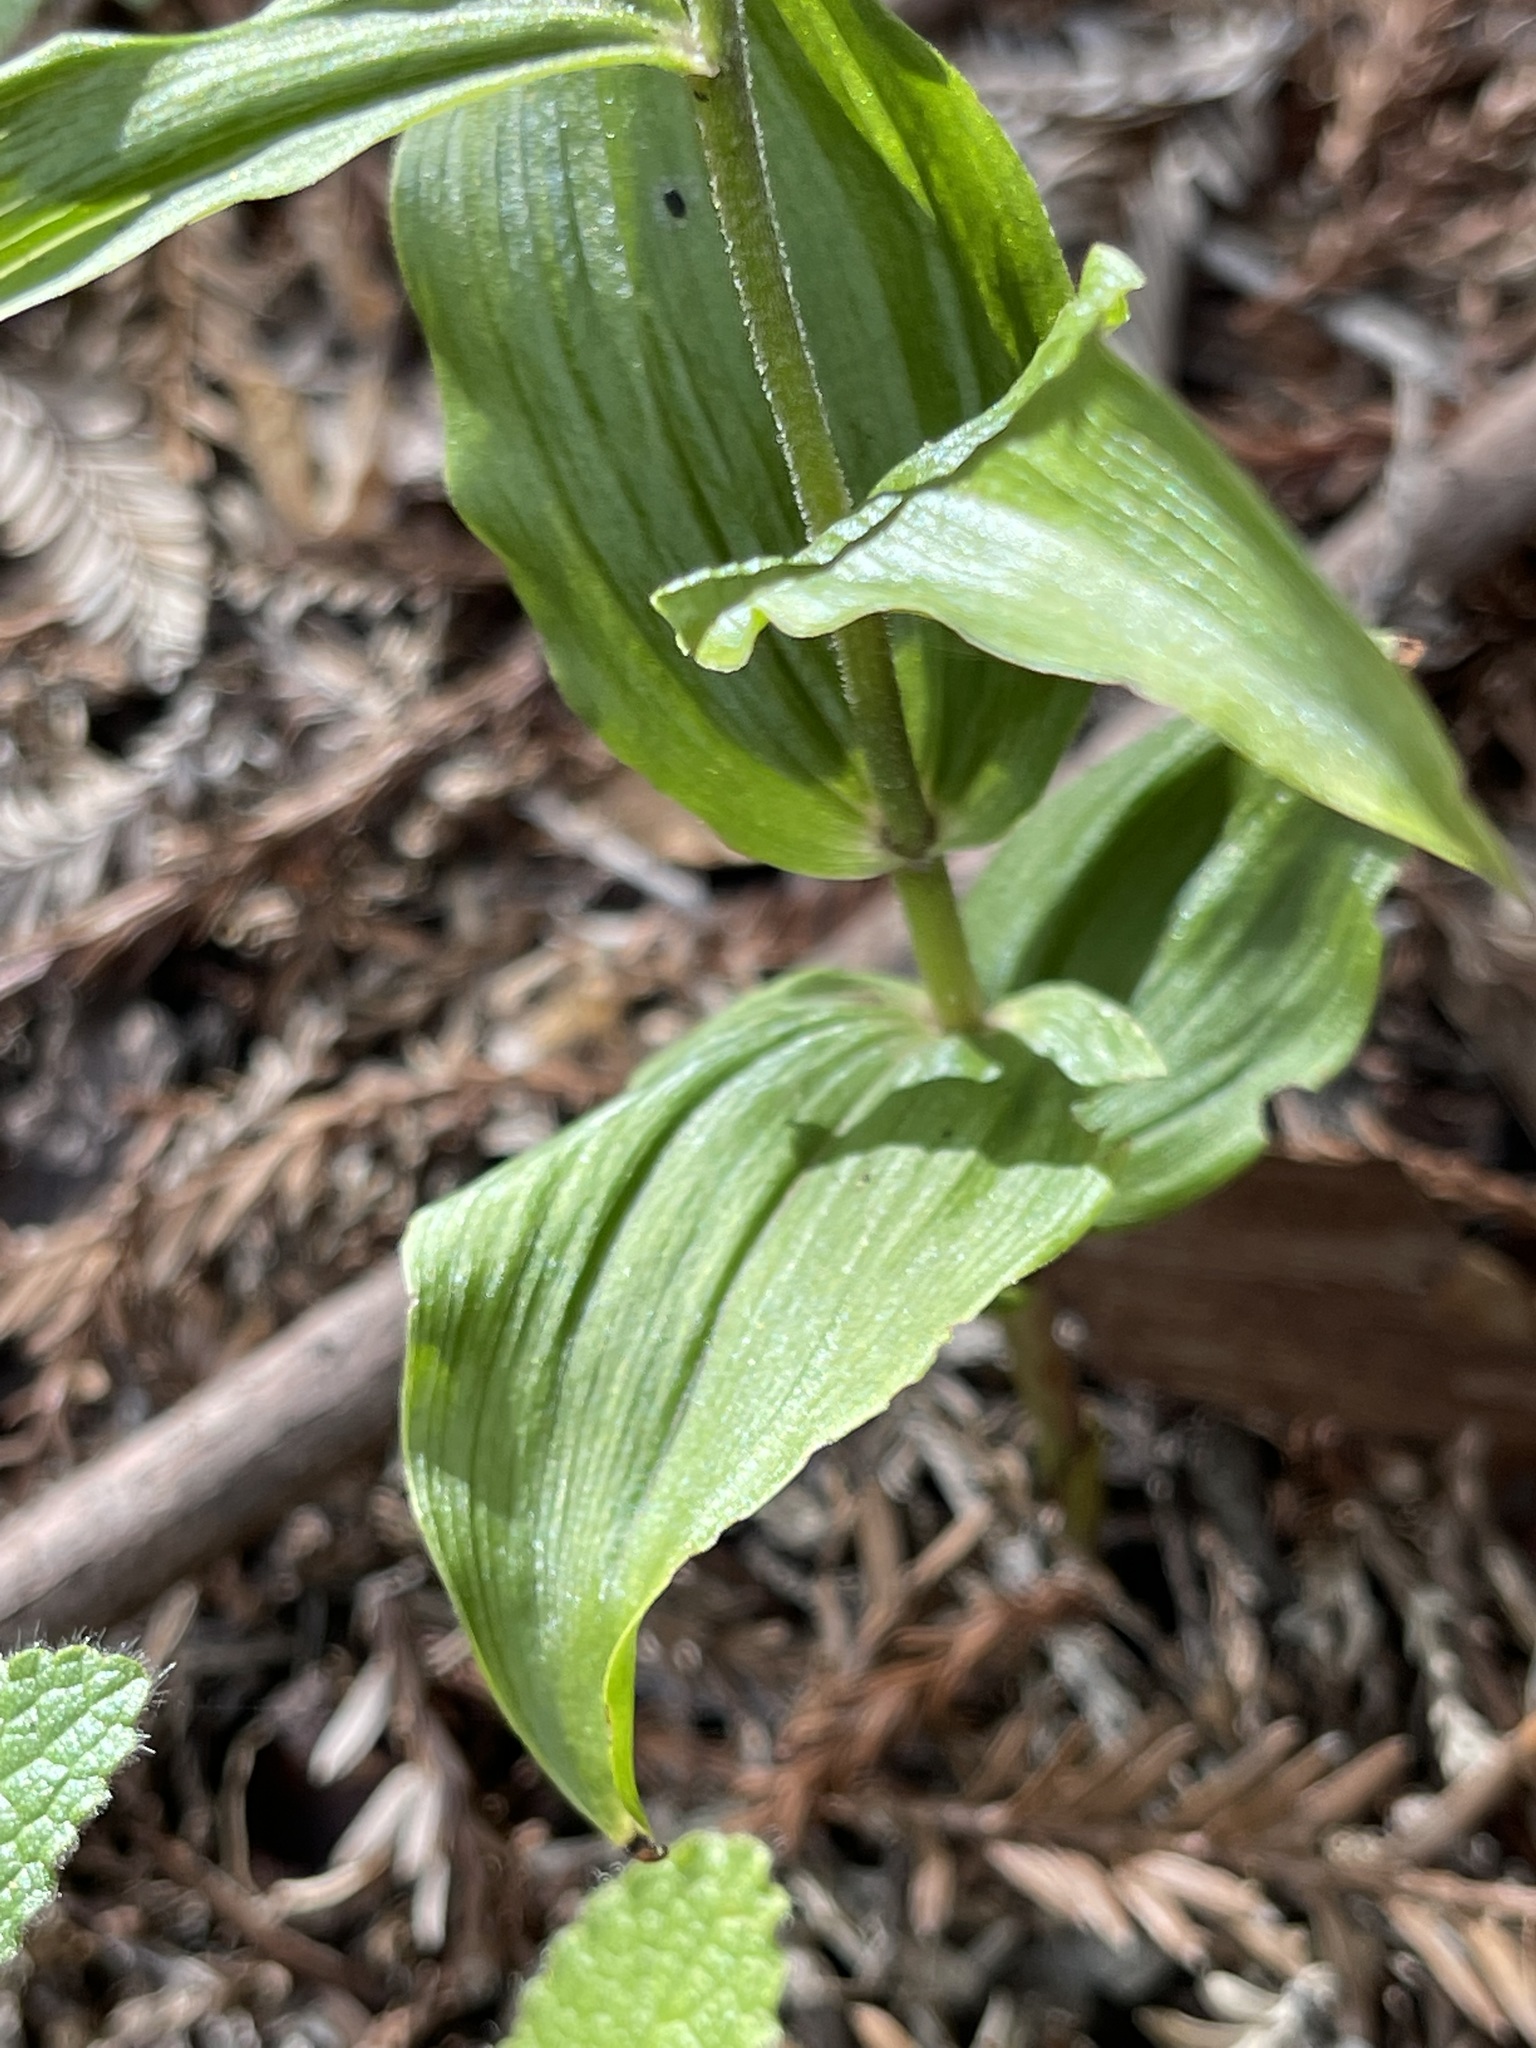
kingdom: Plantae
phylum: Tracheophyta
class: Liliopsida
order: Asparagales
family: Orchidaceae
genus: Epipactis
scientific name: Epipactis helleborine
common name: Broad-leaved helleborine
